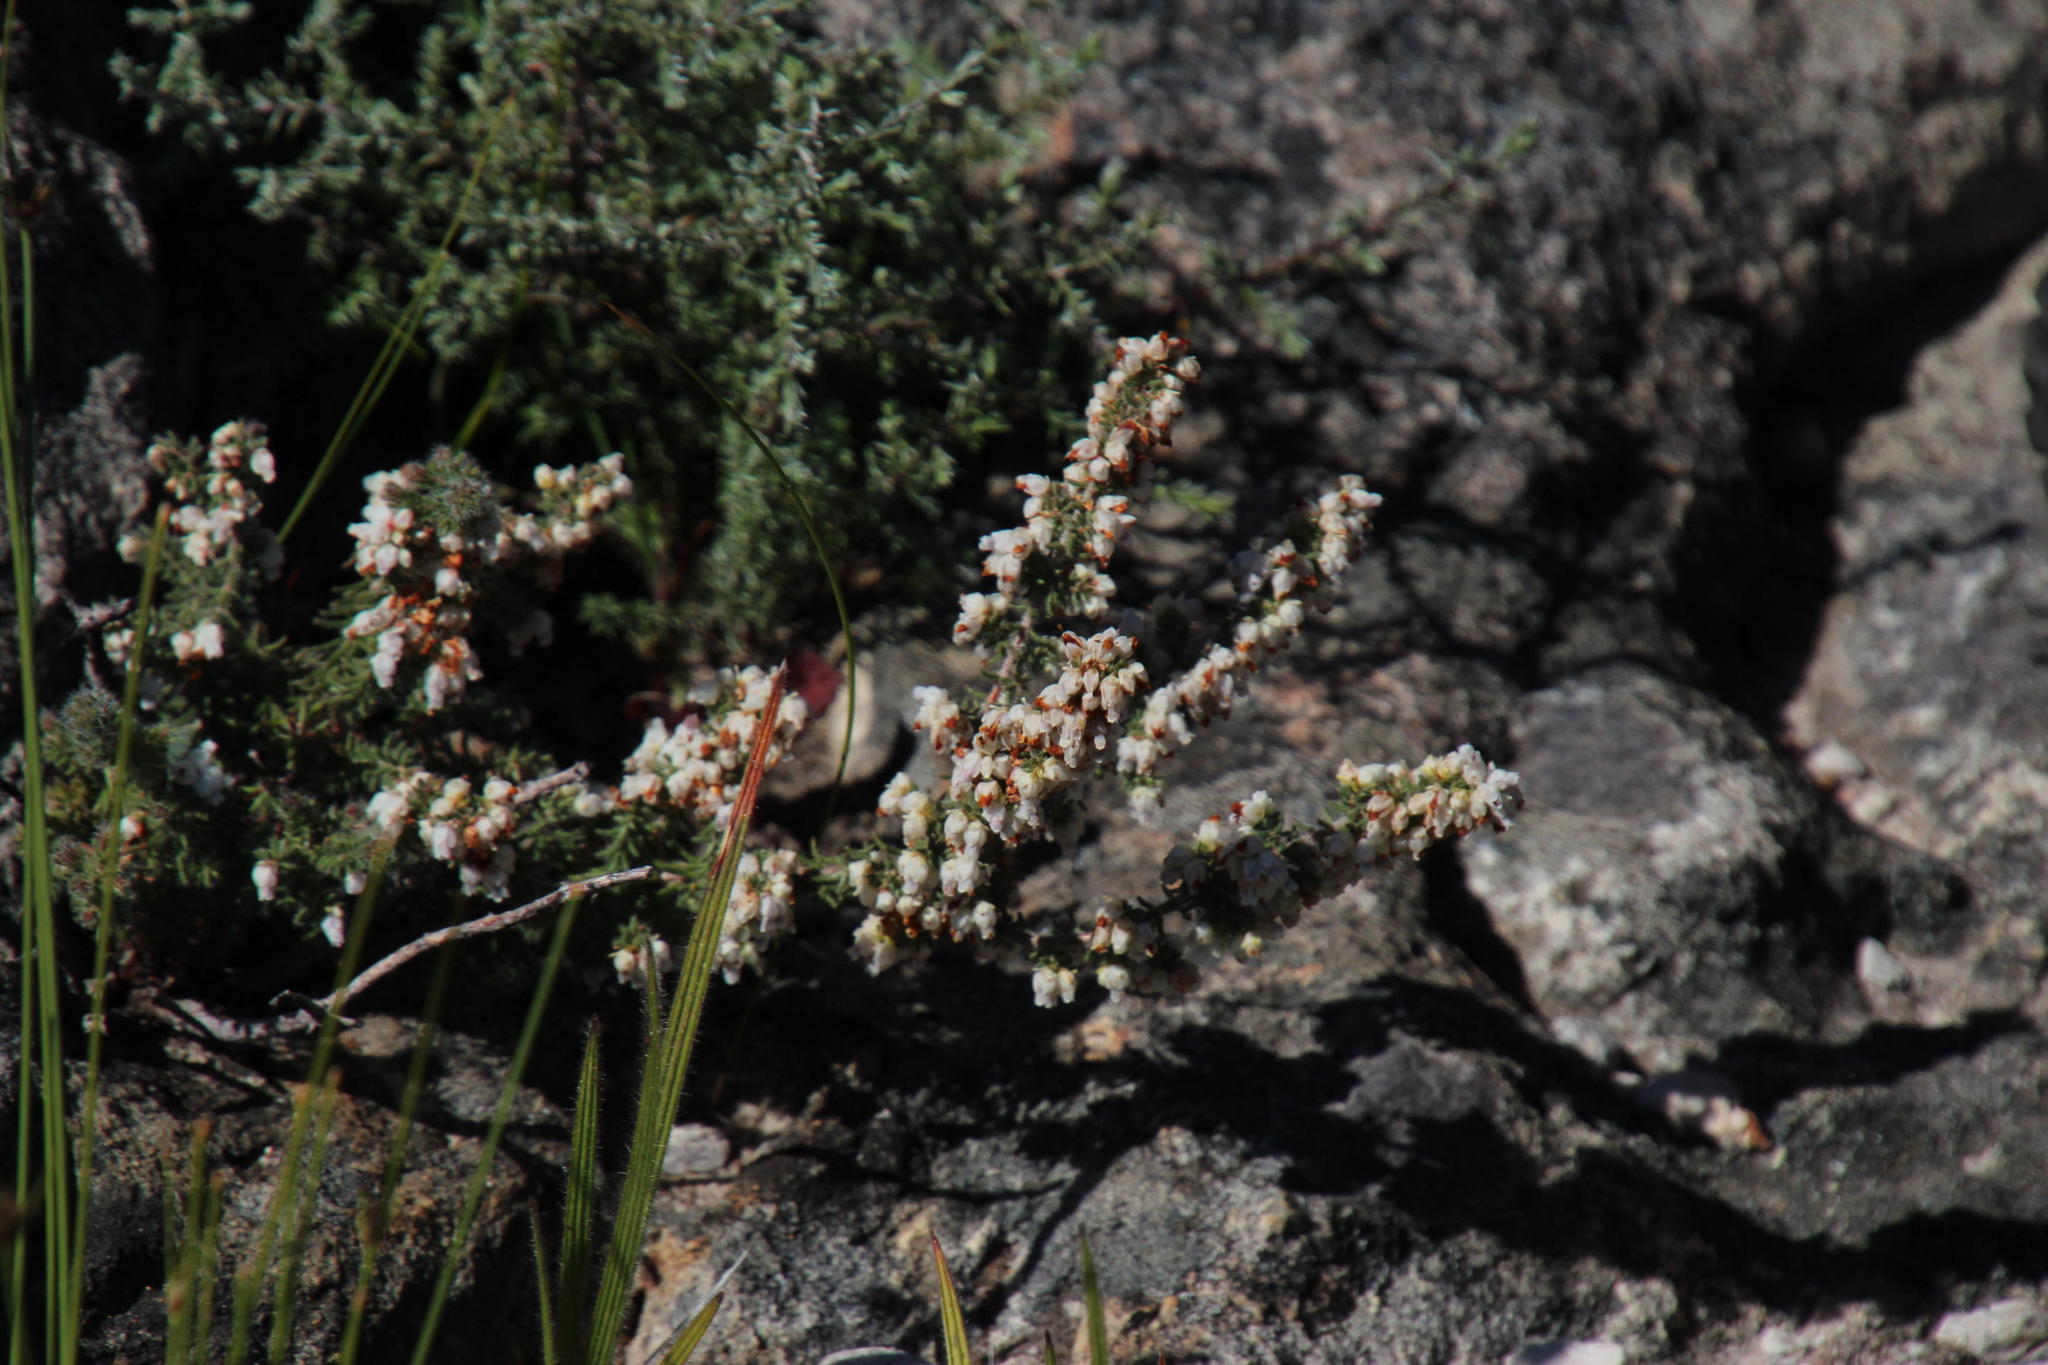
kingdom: Plantae
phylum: Tracheophyta
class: Magnoliopsida
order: Ericales
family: Ericaceae
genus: Erica
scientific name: Erica totta
